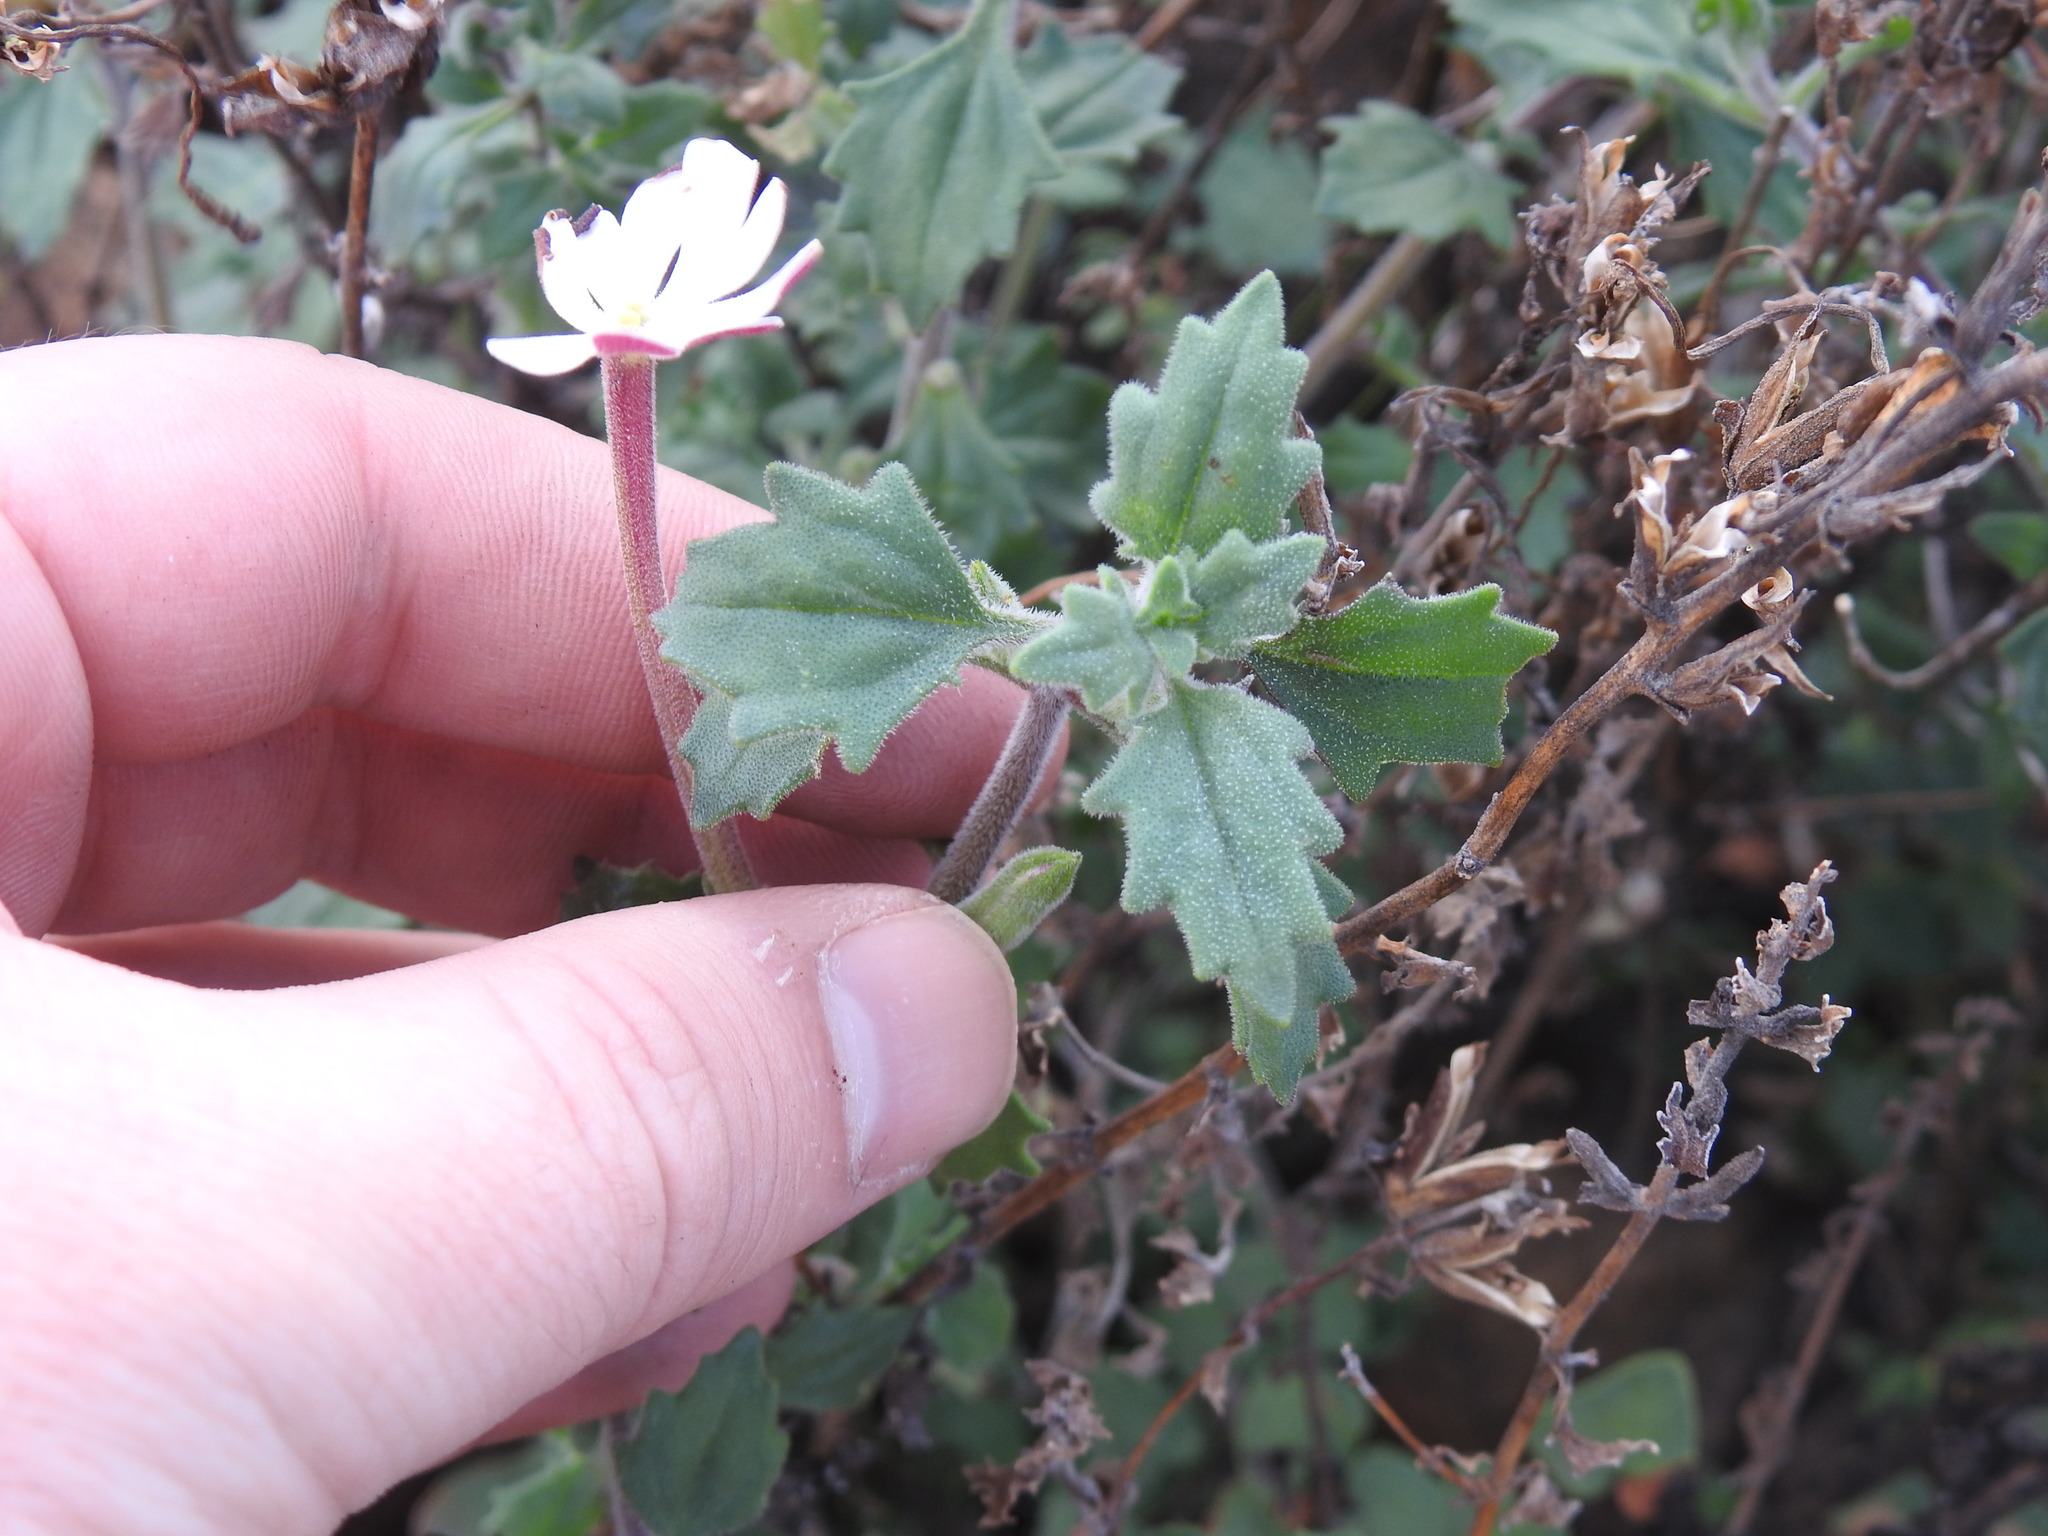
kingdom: Plantae
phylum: Tracheophyta
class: Magnoliopsida
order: Lamiales
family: Scrophulariaceae
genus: Zaluzianskya
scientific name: Zaluzianskya katharinae
